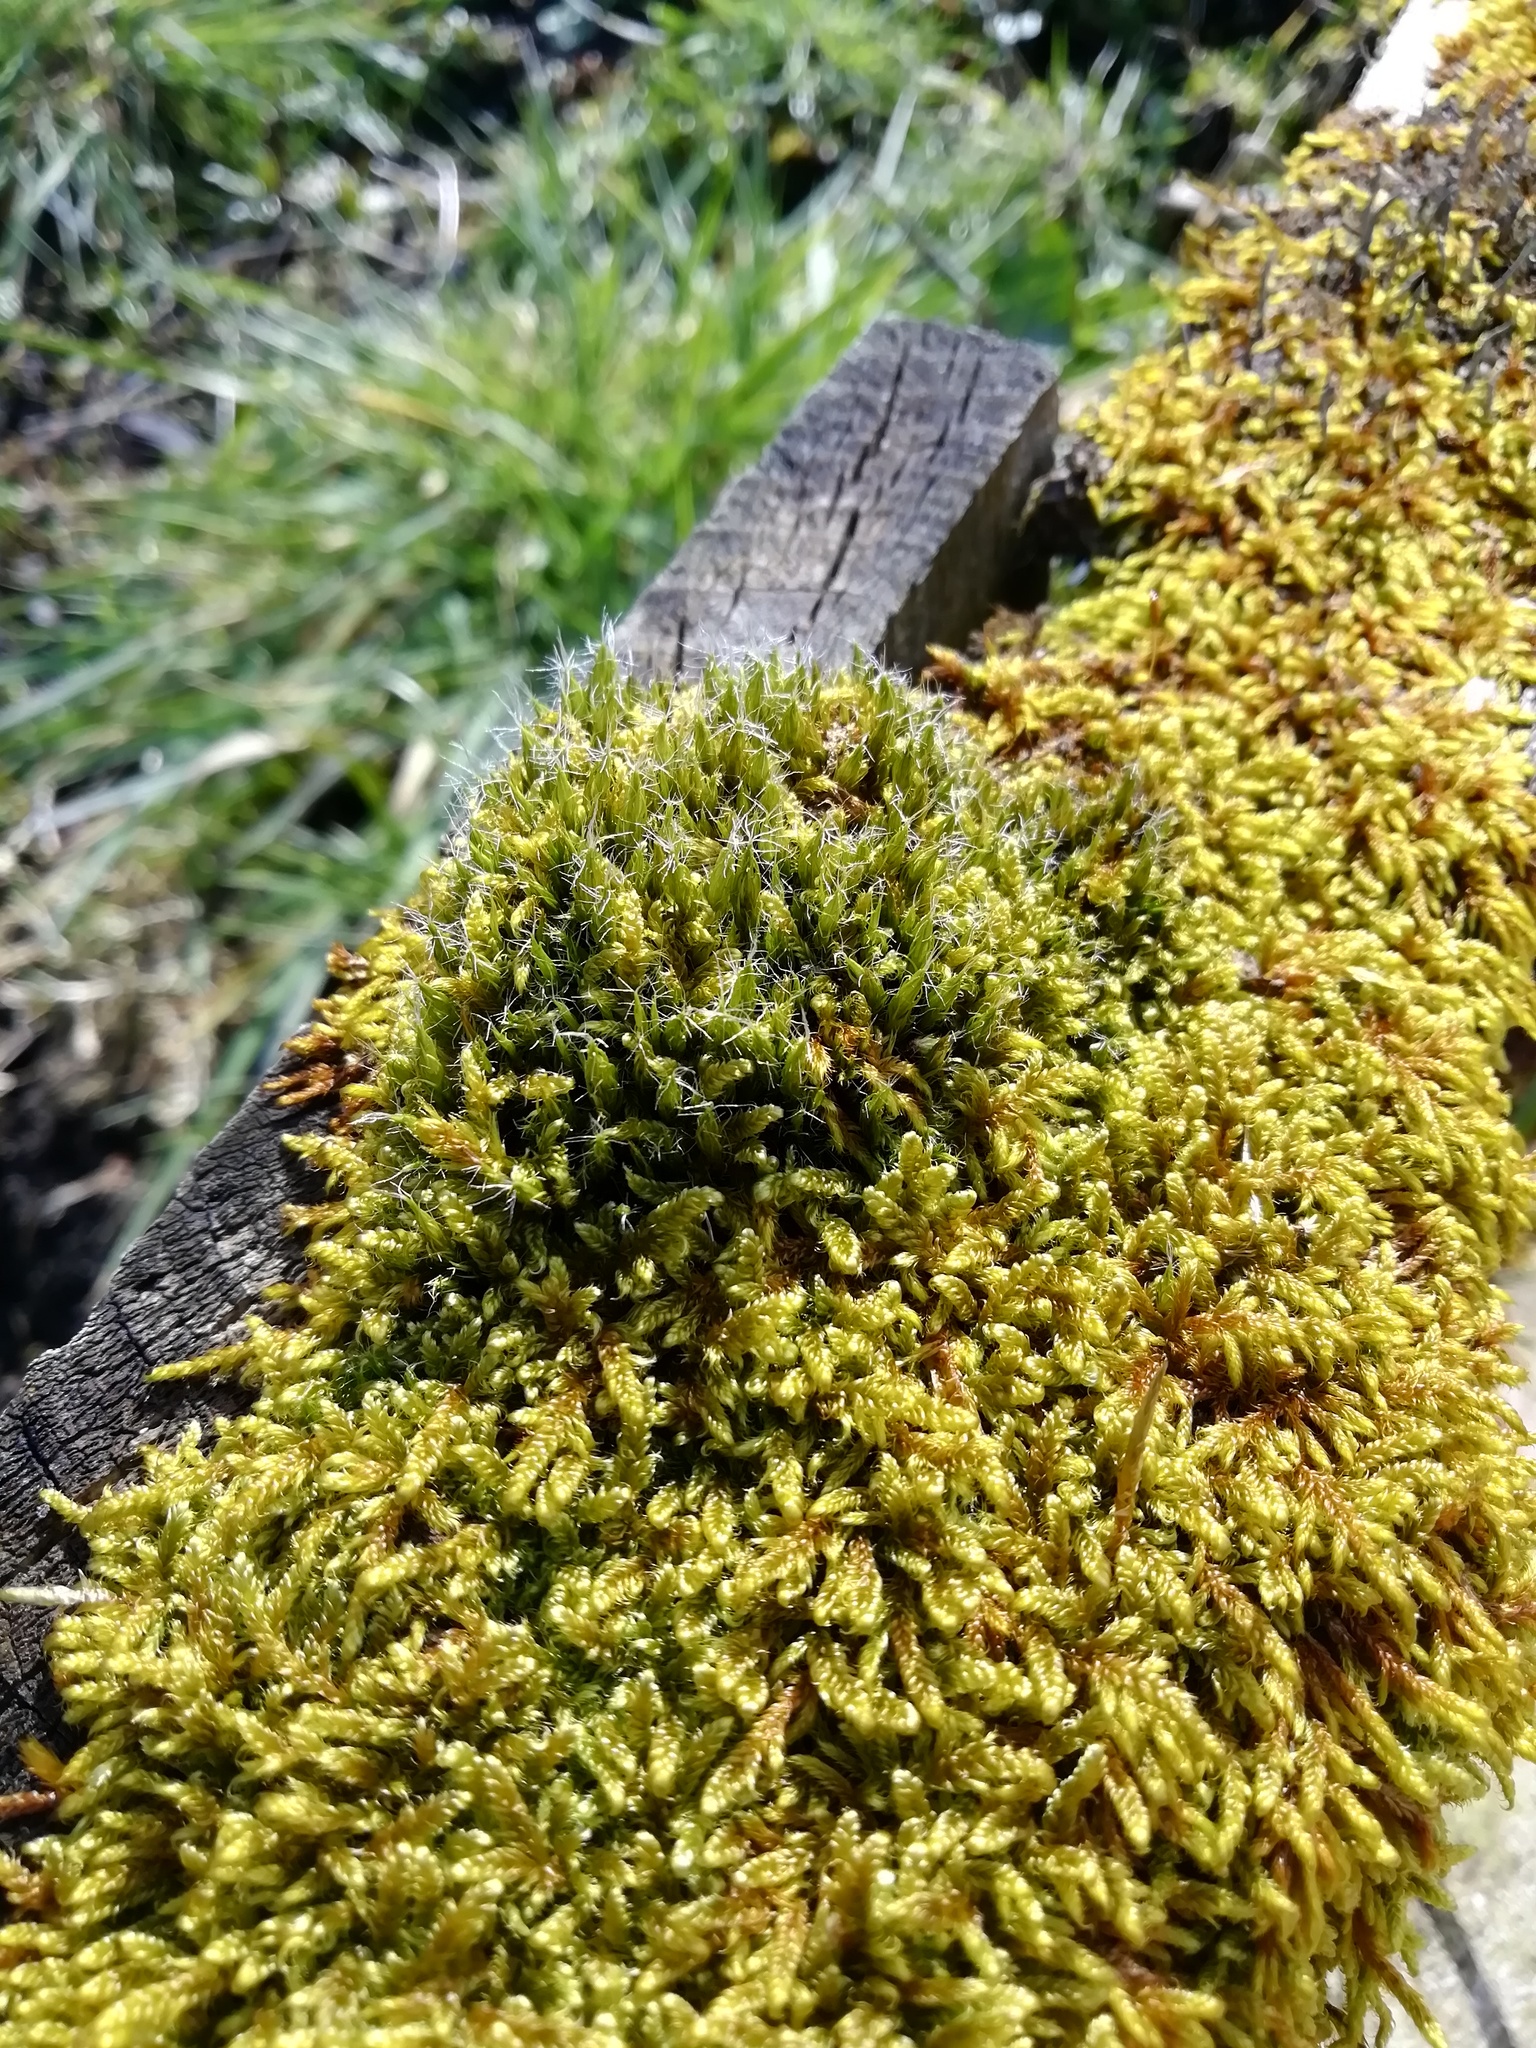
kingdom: Plantae
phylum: Bryophyta
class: Bryopsida
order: Dicranales
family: Leucobryaceae
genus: Campylopus
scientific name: Campylopus introflexus
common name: Heath star moss
